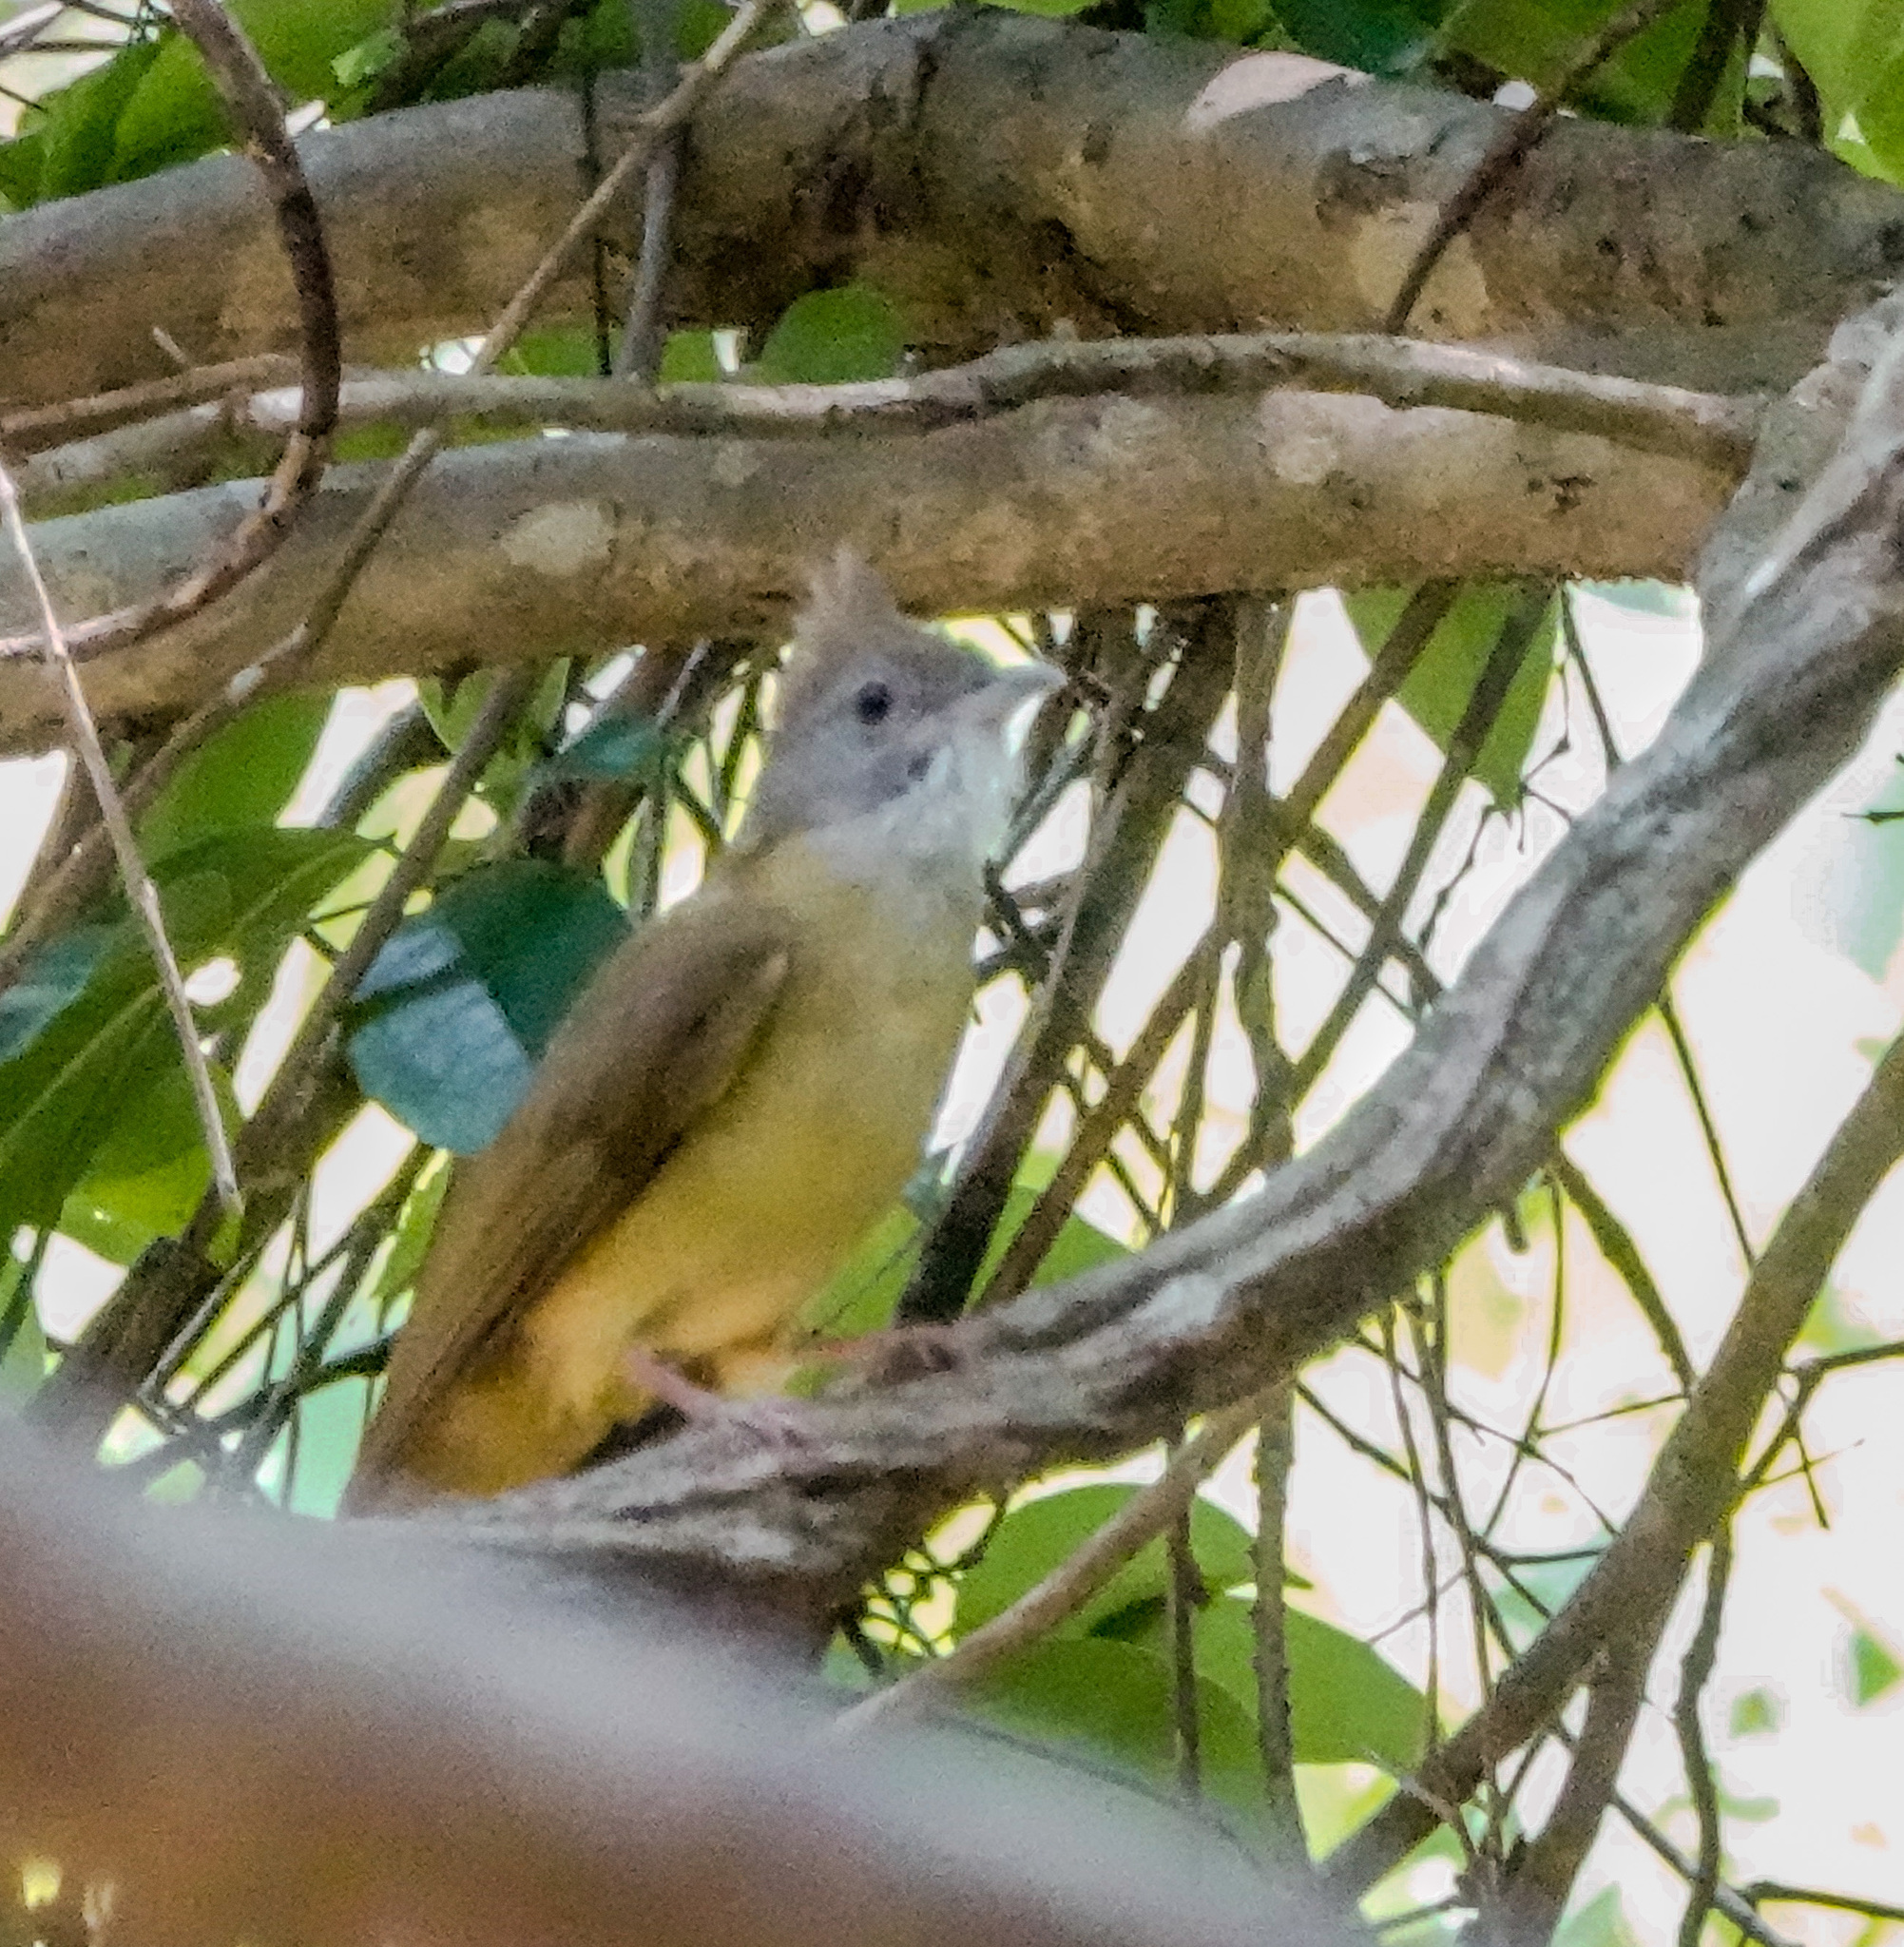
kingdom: Animalia
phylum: Chordata
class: Aves
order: Passeriformes
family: Pycnonotidae
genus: Alophoixus
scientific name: Alophoixus pallidus
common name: Puff-throated bulbul
